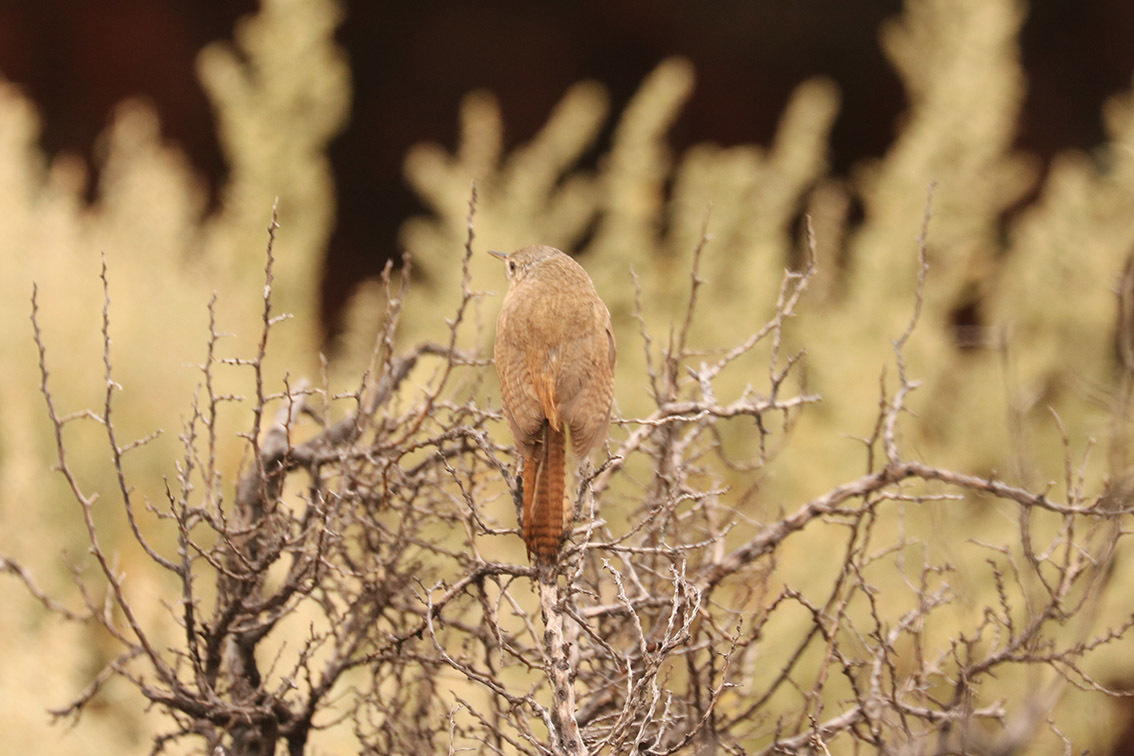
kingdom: Animalia
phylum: Chordata
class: Aves
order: Passeriformes
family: Troglodytidae
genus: Troglodytes
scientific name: Troglodytes aedon
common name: House wren
